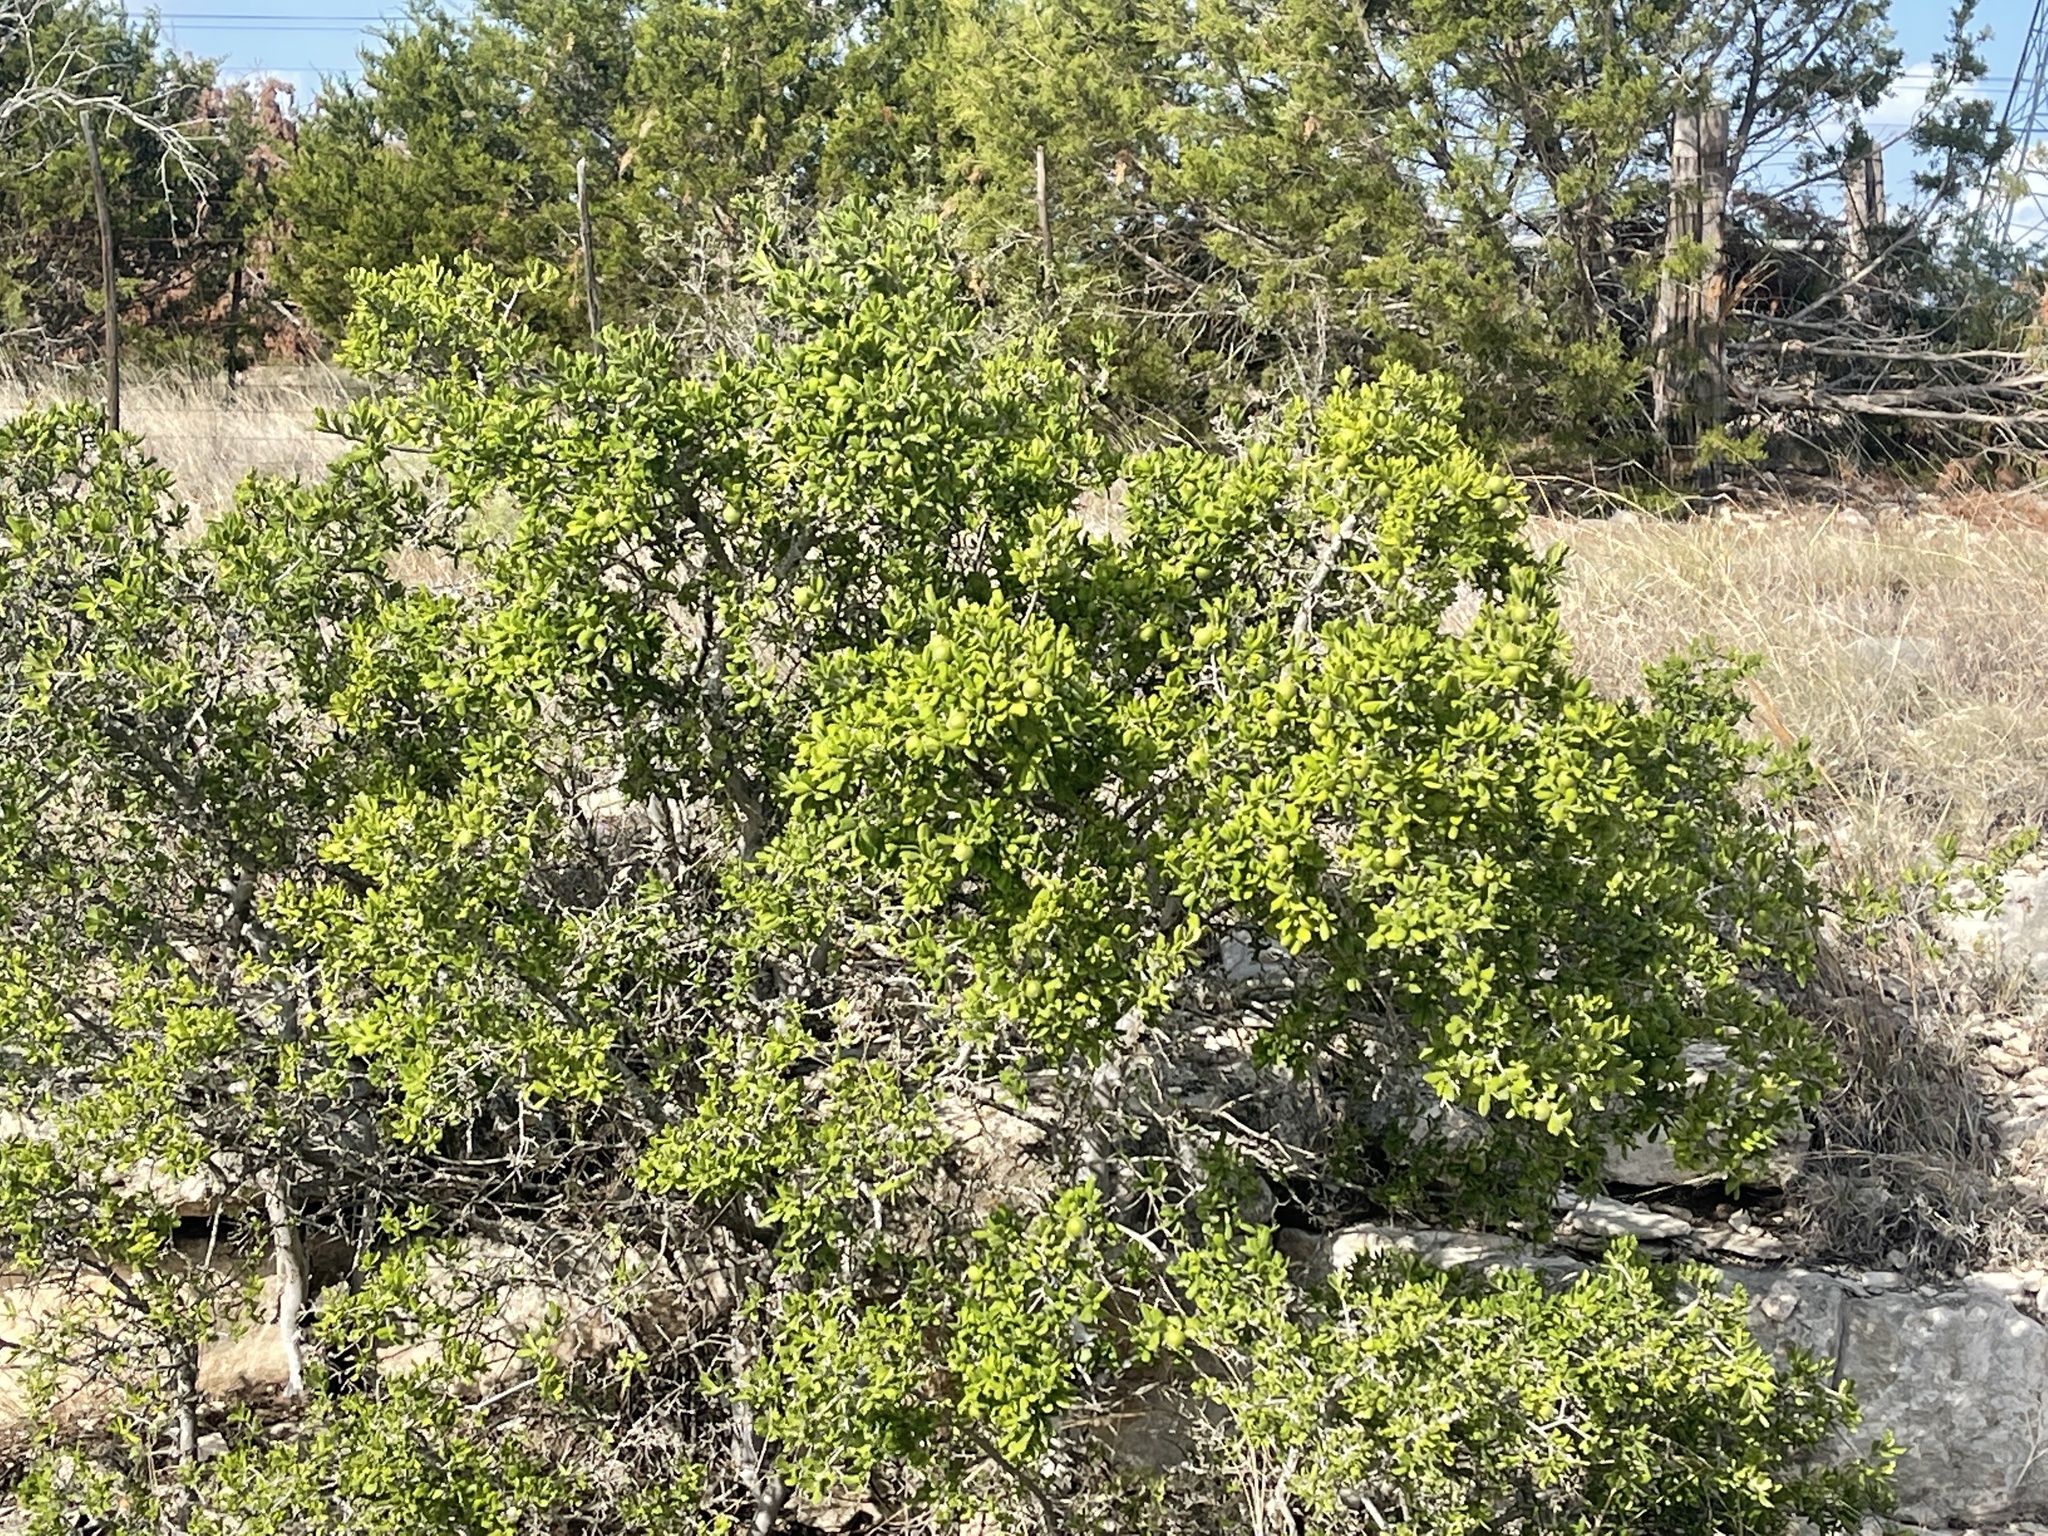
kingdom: Plantae
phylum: Tracheophyta
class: Magnoliopsida
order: Ericales
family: Ebenaceae
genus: Diospyros
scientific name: Diospyros texana
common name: Texas persimmon
